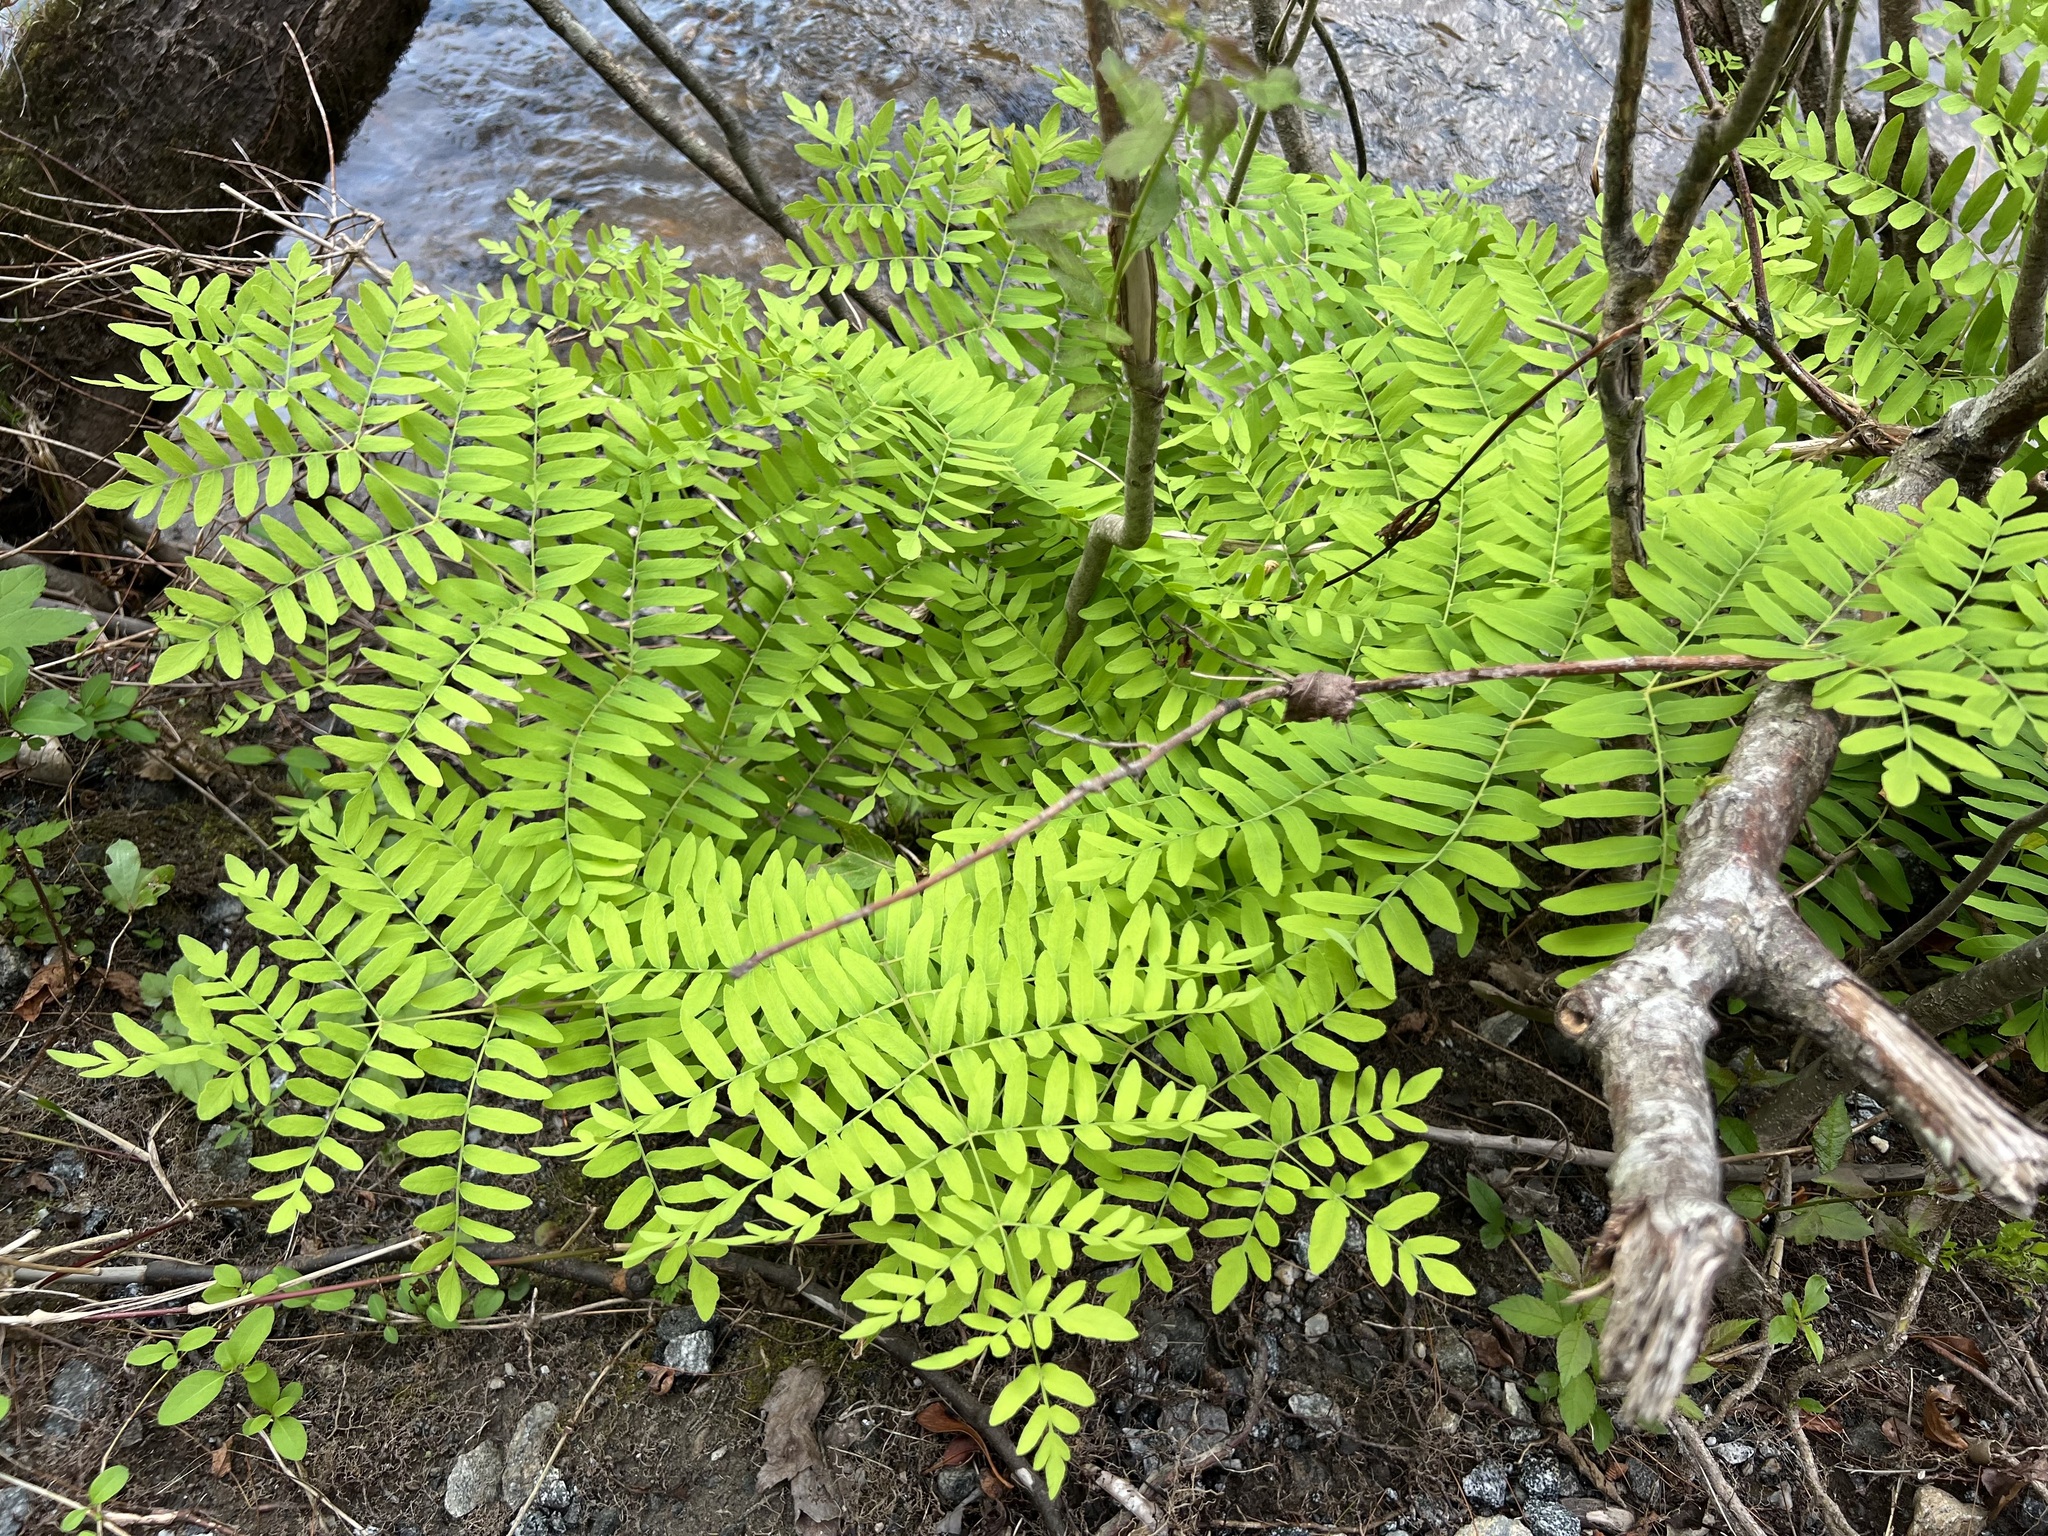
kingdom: Plantae
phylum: Tracheophyta
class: Polypodiopsida
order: Osmundales
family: Osmundaceae
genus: Osmunda
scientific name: Osmunda spectabilis
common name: American royal fern
